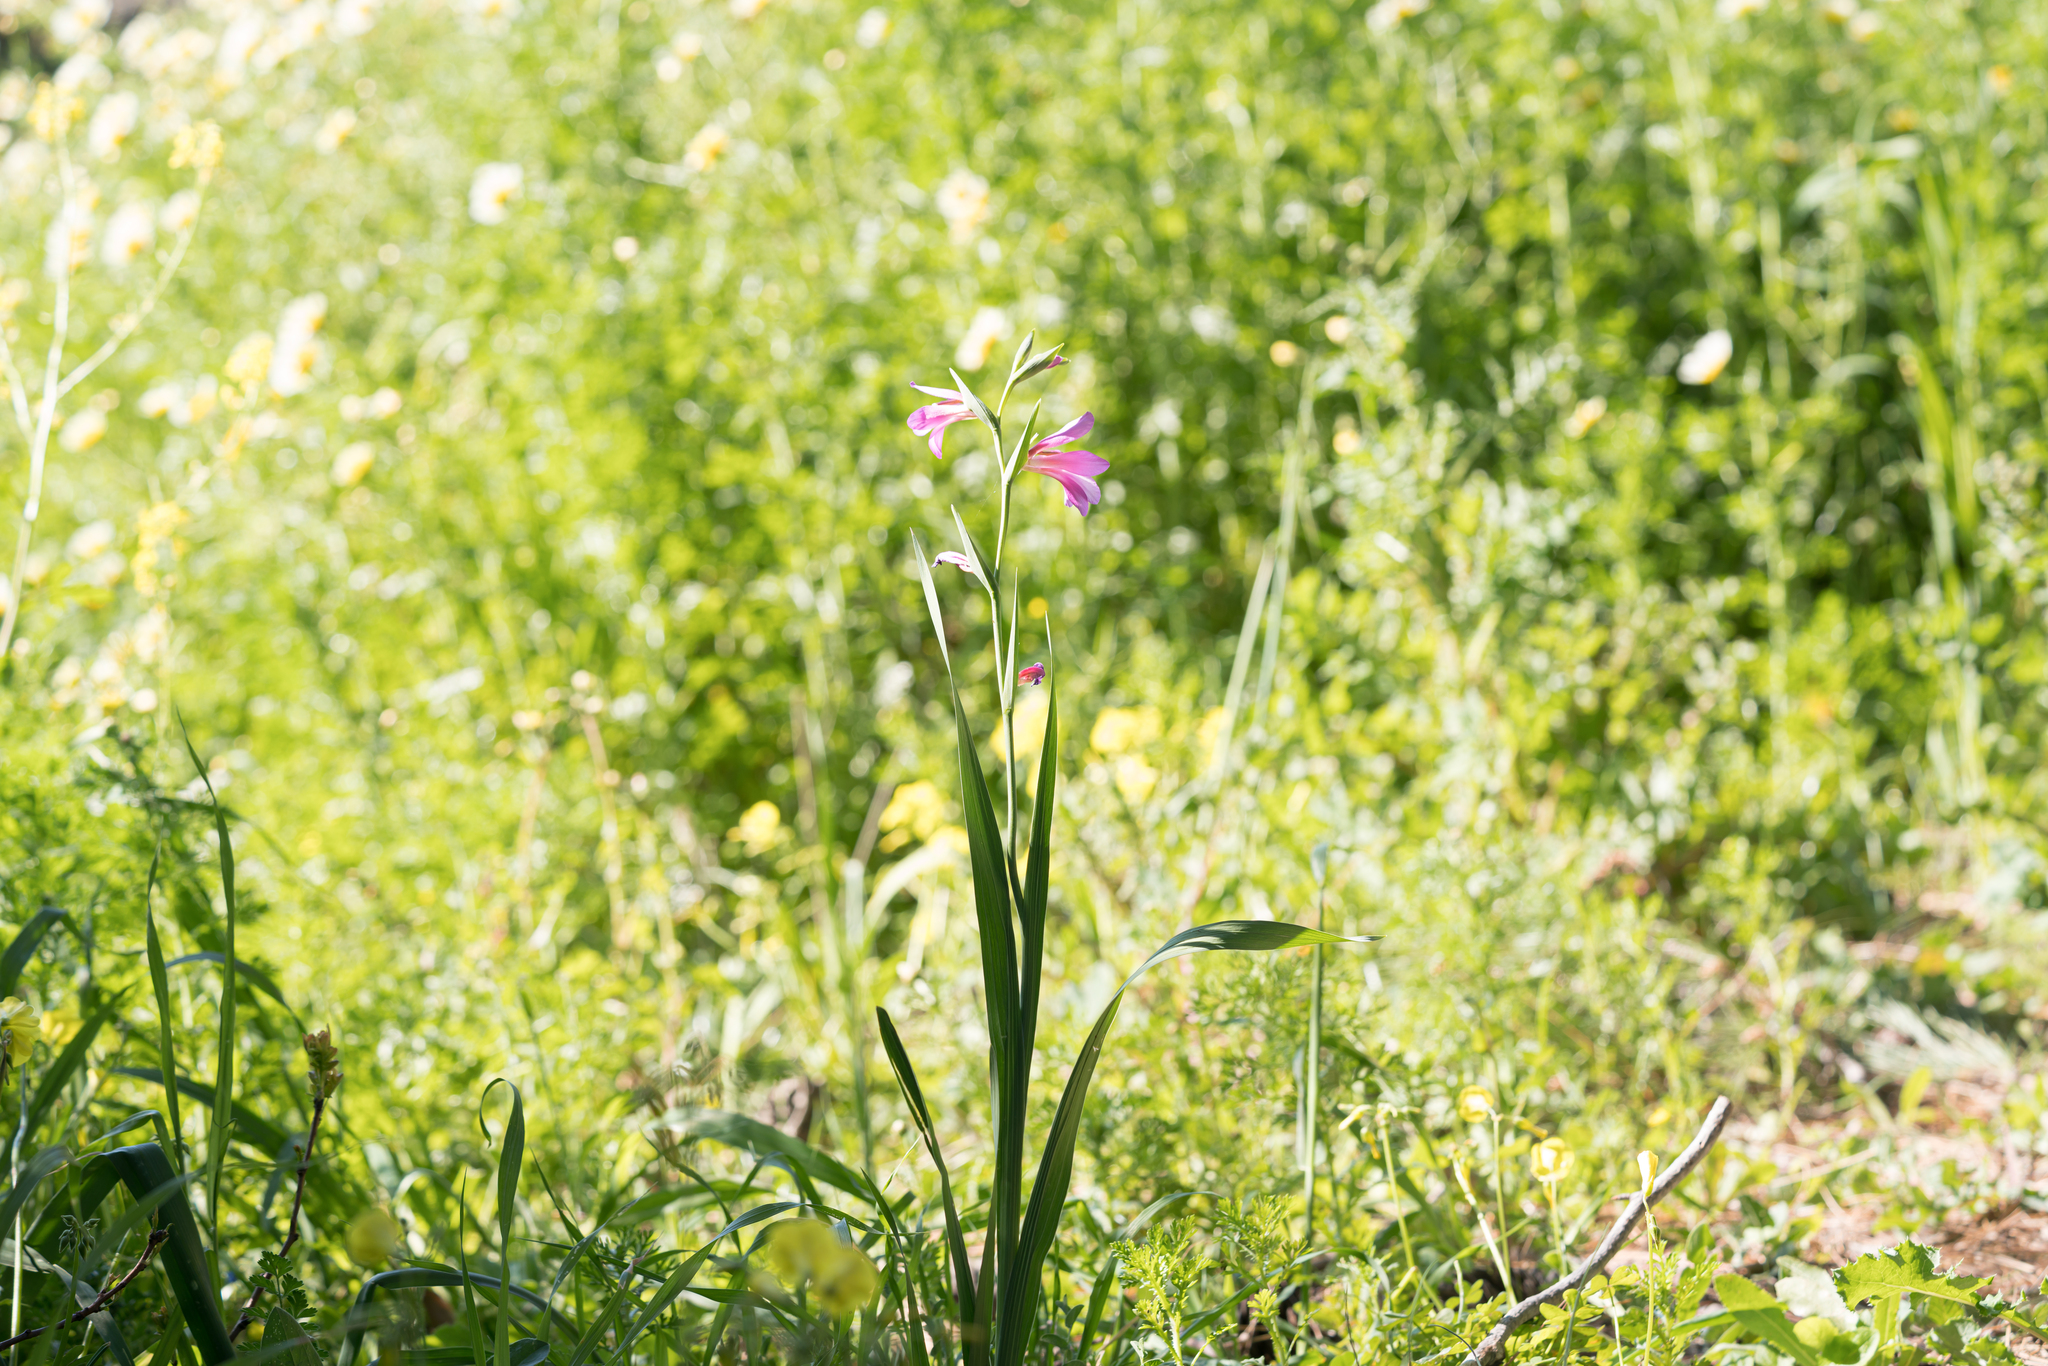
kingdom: Plantae
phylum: Tracheophyta
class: Liliopsida
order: Asparagales
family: Iridaceae
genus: Gladiolus
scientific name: Gladiolus italicus
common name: Field gladiolus
